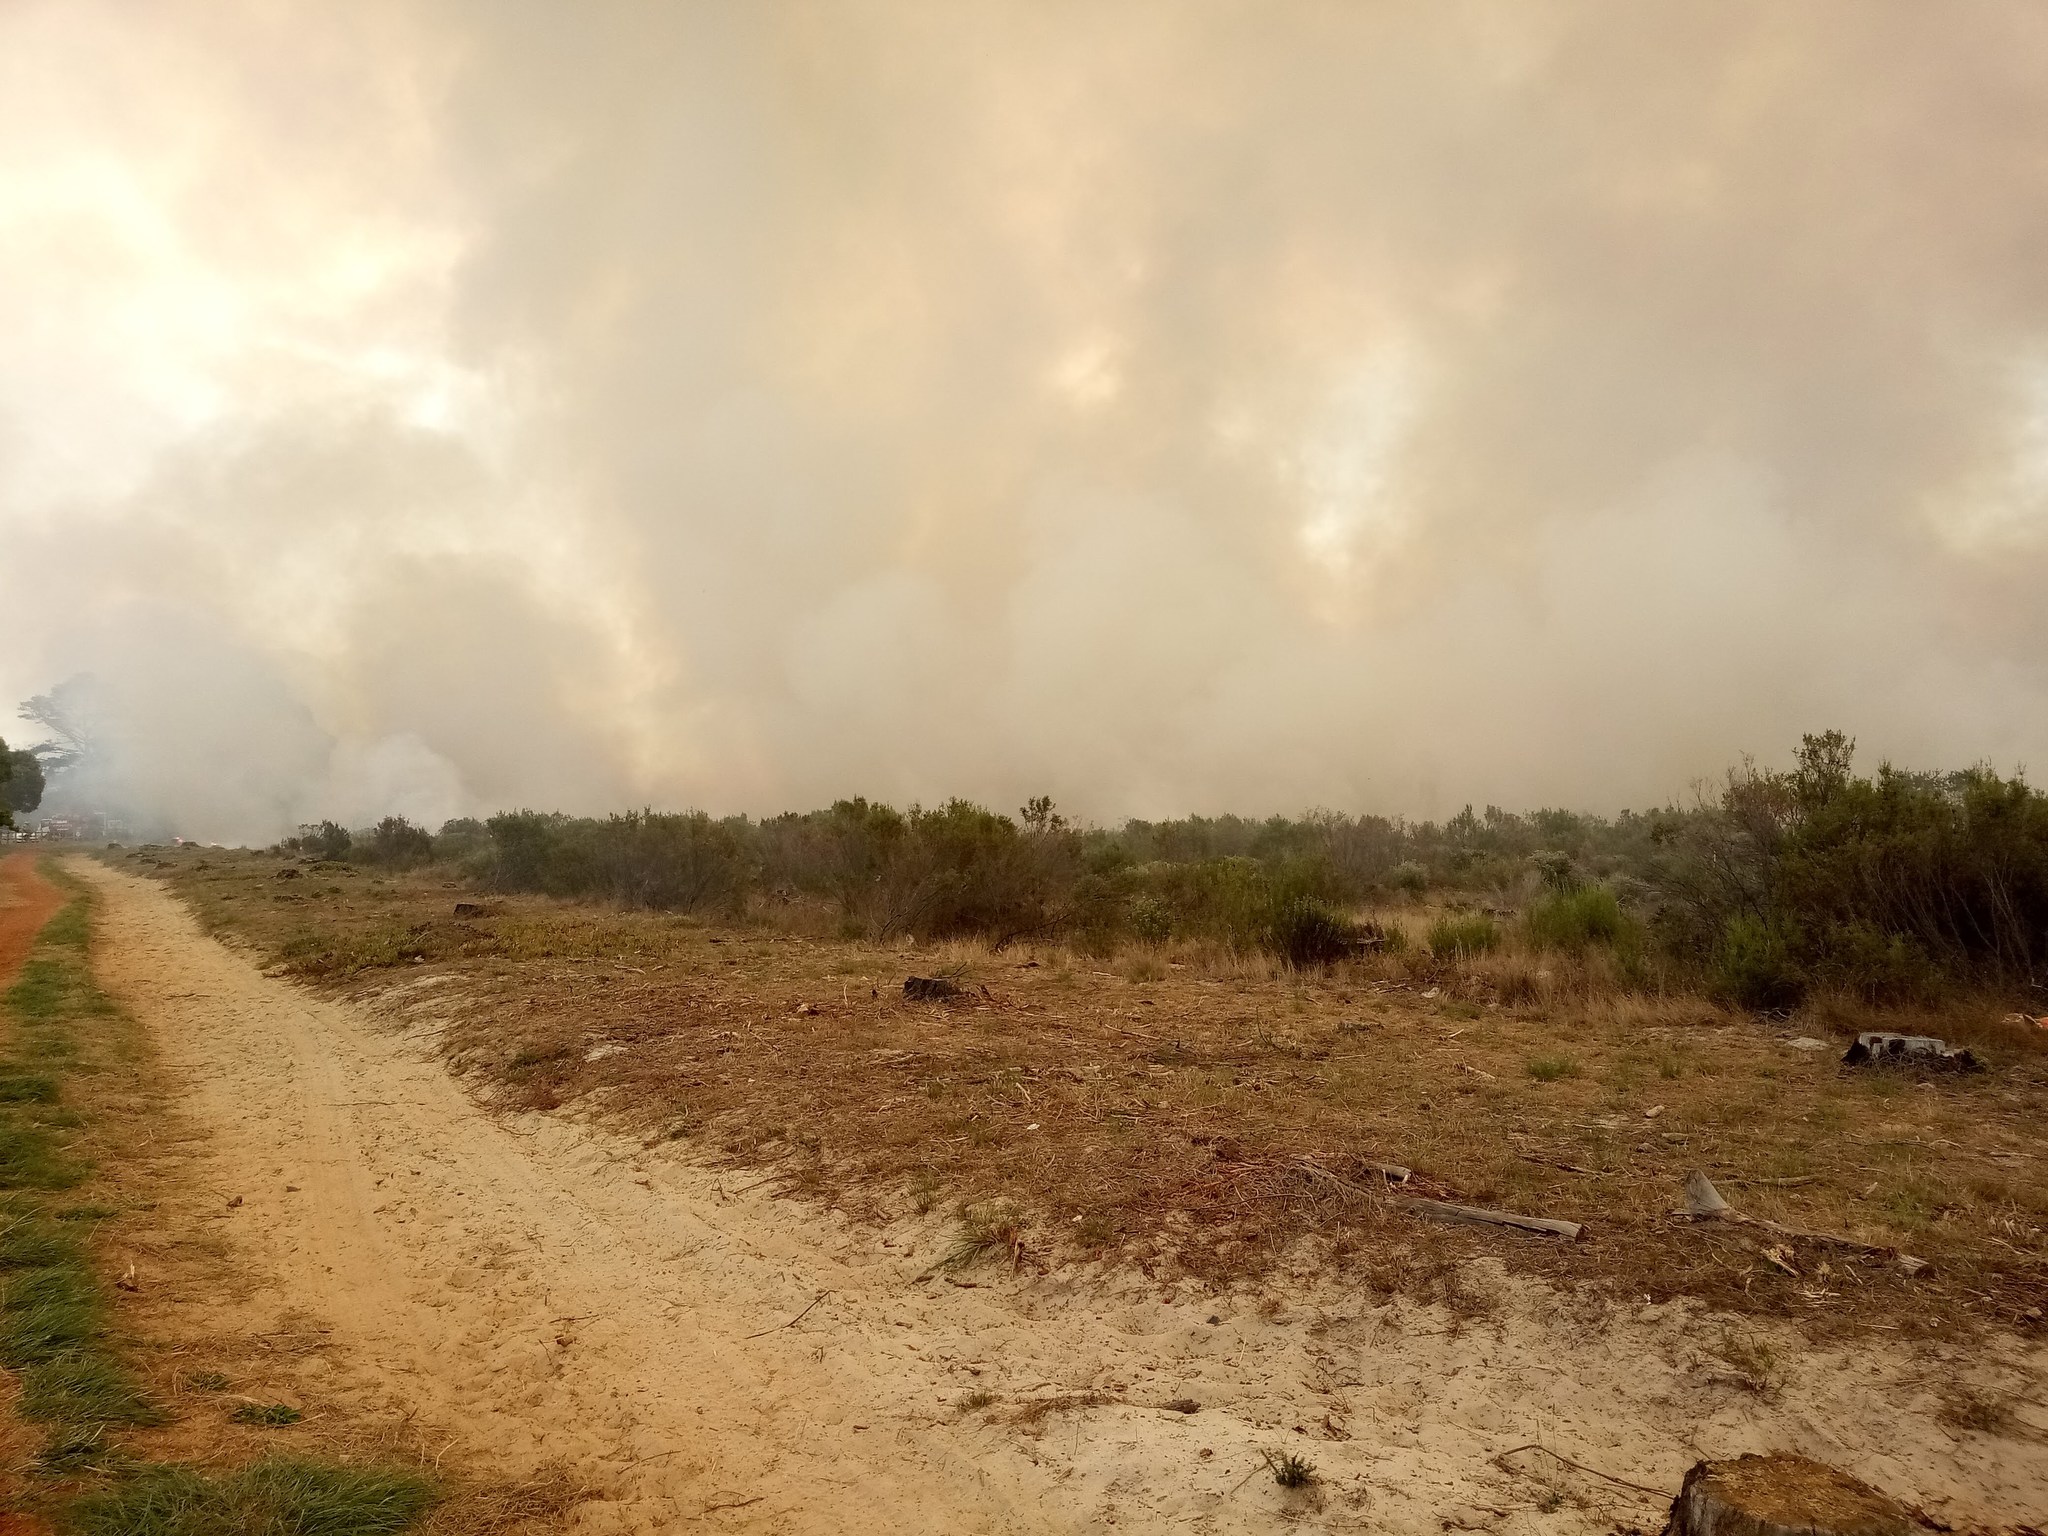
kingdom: Plantae
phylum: Tracheophyta
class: Magnoliopsida
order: Asterales
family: Asteraceae
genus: Metalasia
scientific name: Metalasia densa
